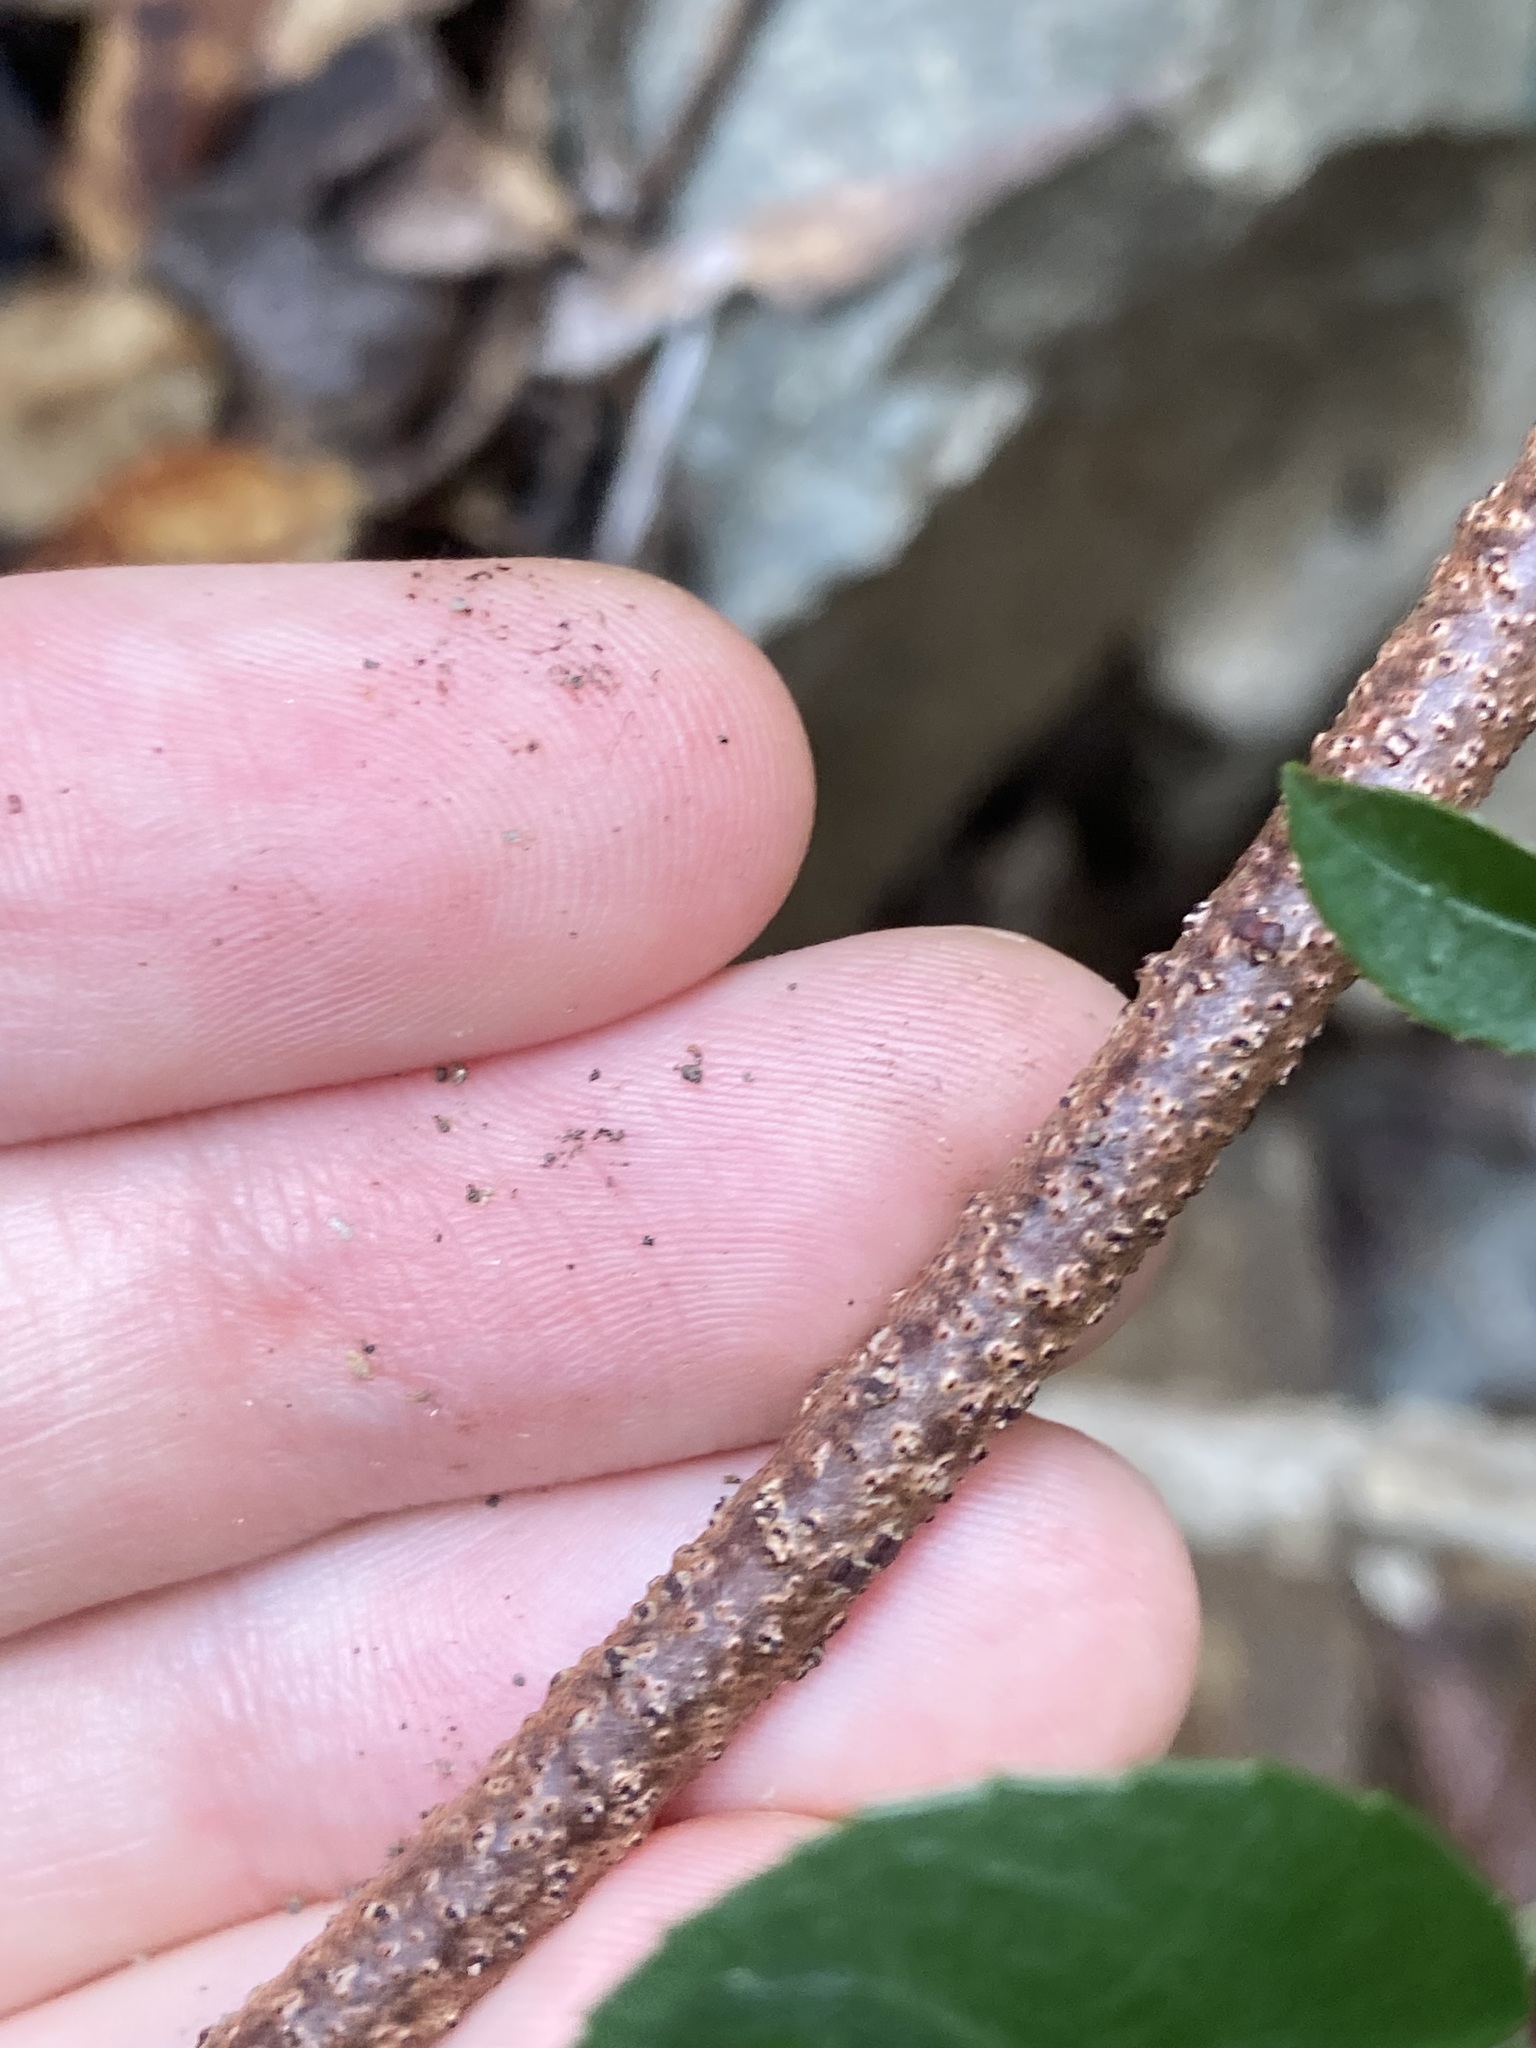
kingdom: Plantae
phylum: Tracheophyta
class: Magnoliopsida
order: Saxifragales
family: Aphanopetalaceae
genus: Aphanopetalum
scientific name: Aphanopetalum resinosum
